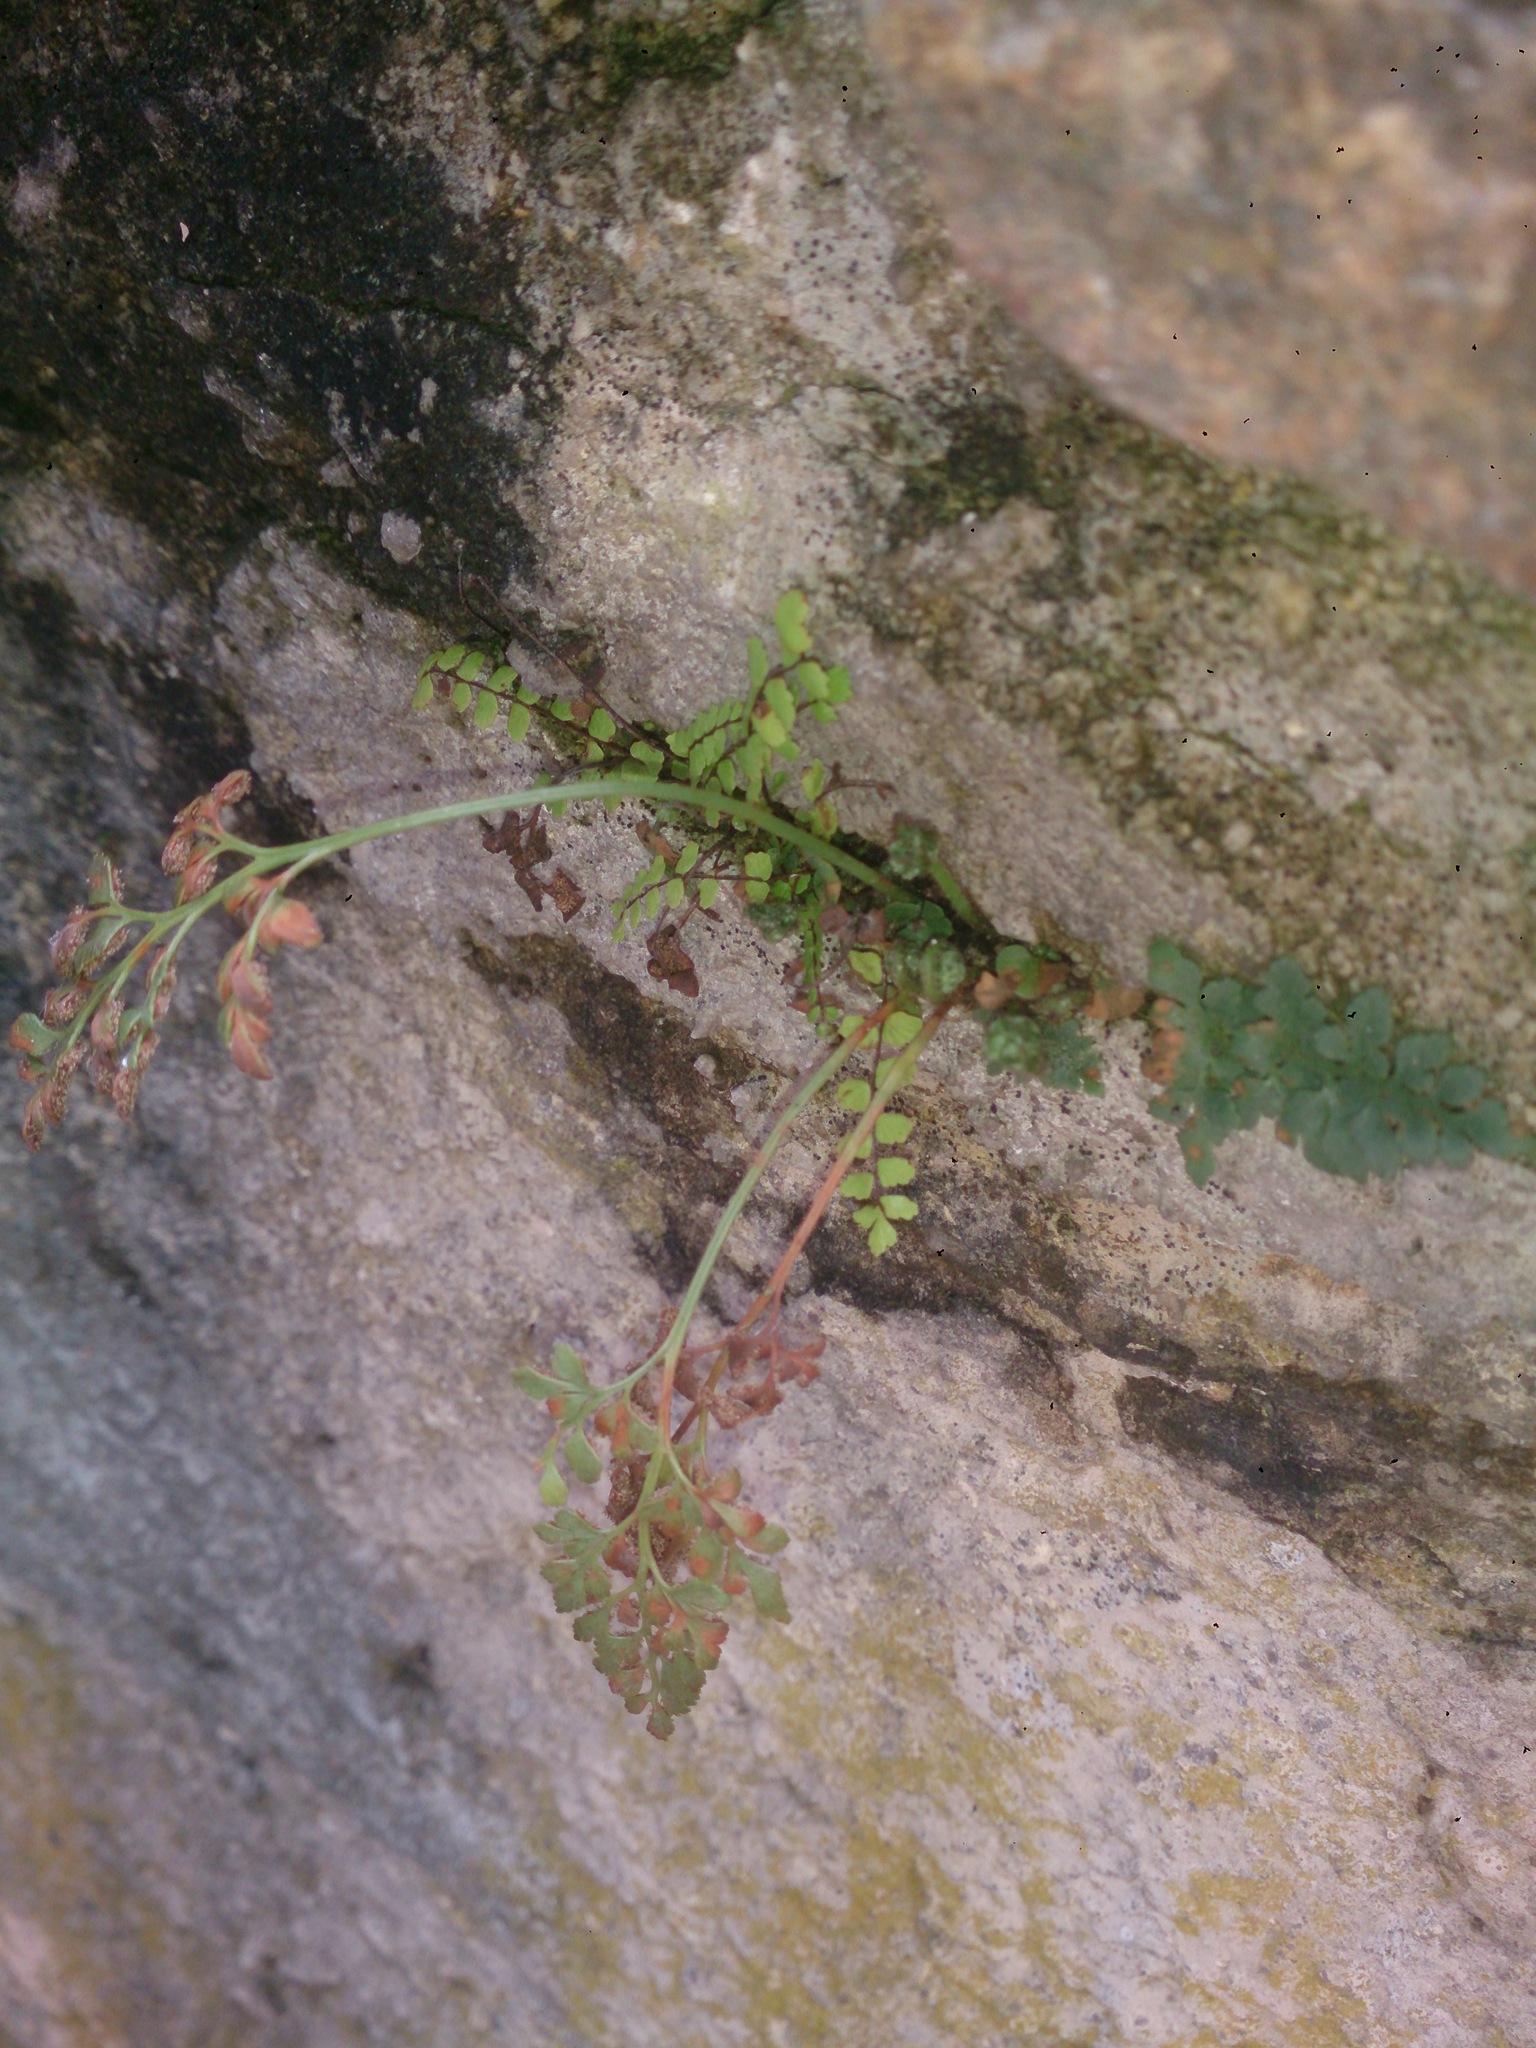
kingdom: Plantae
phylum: Tracheophyta
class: Polypodiopsida
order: Polypodiales
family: Aspleniaceae
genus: Asplenium
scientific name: Asplenium ruta-muraria
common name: Wall-rue
